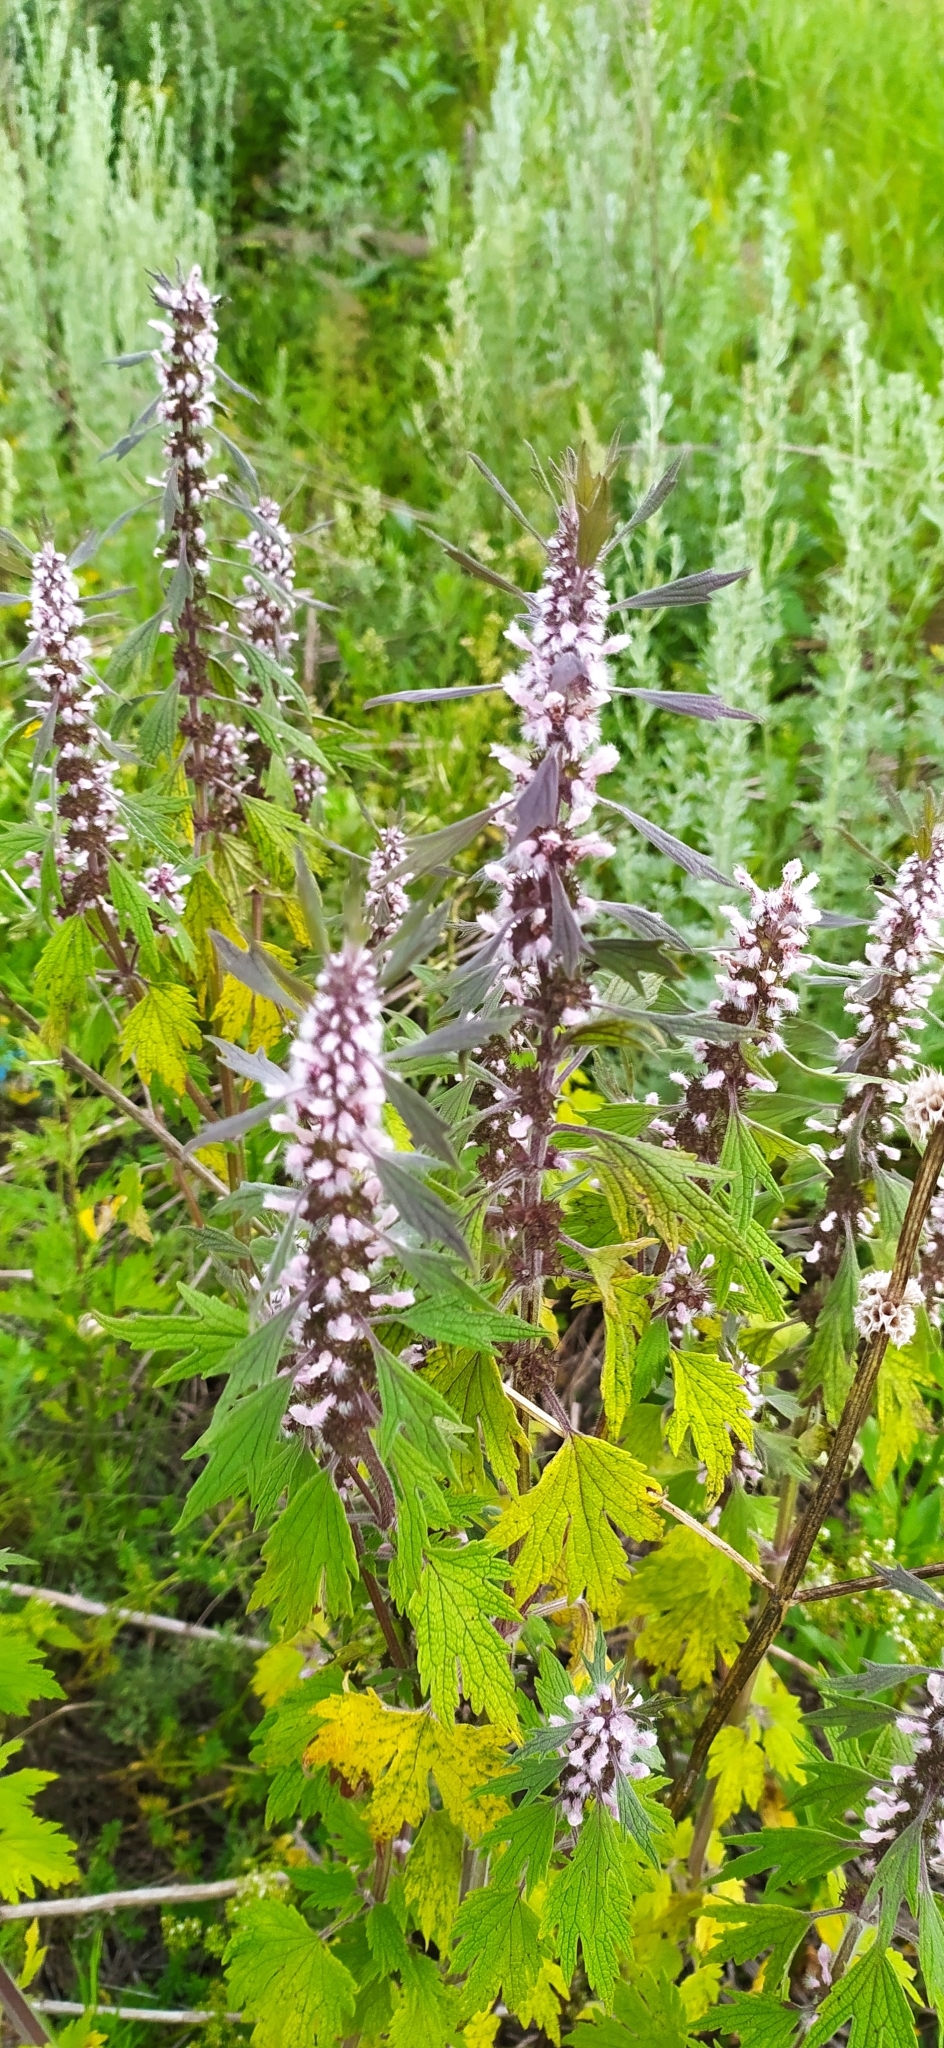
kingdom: Plantae
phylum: Tracheophyta
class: Magnoliopsida
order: Lamiales
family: Lamiaceae
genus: Leonurus
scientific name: Leonurus quinquelobatus
